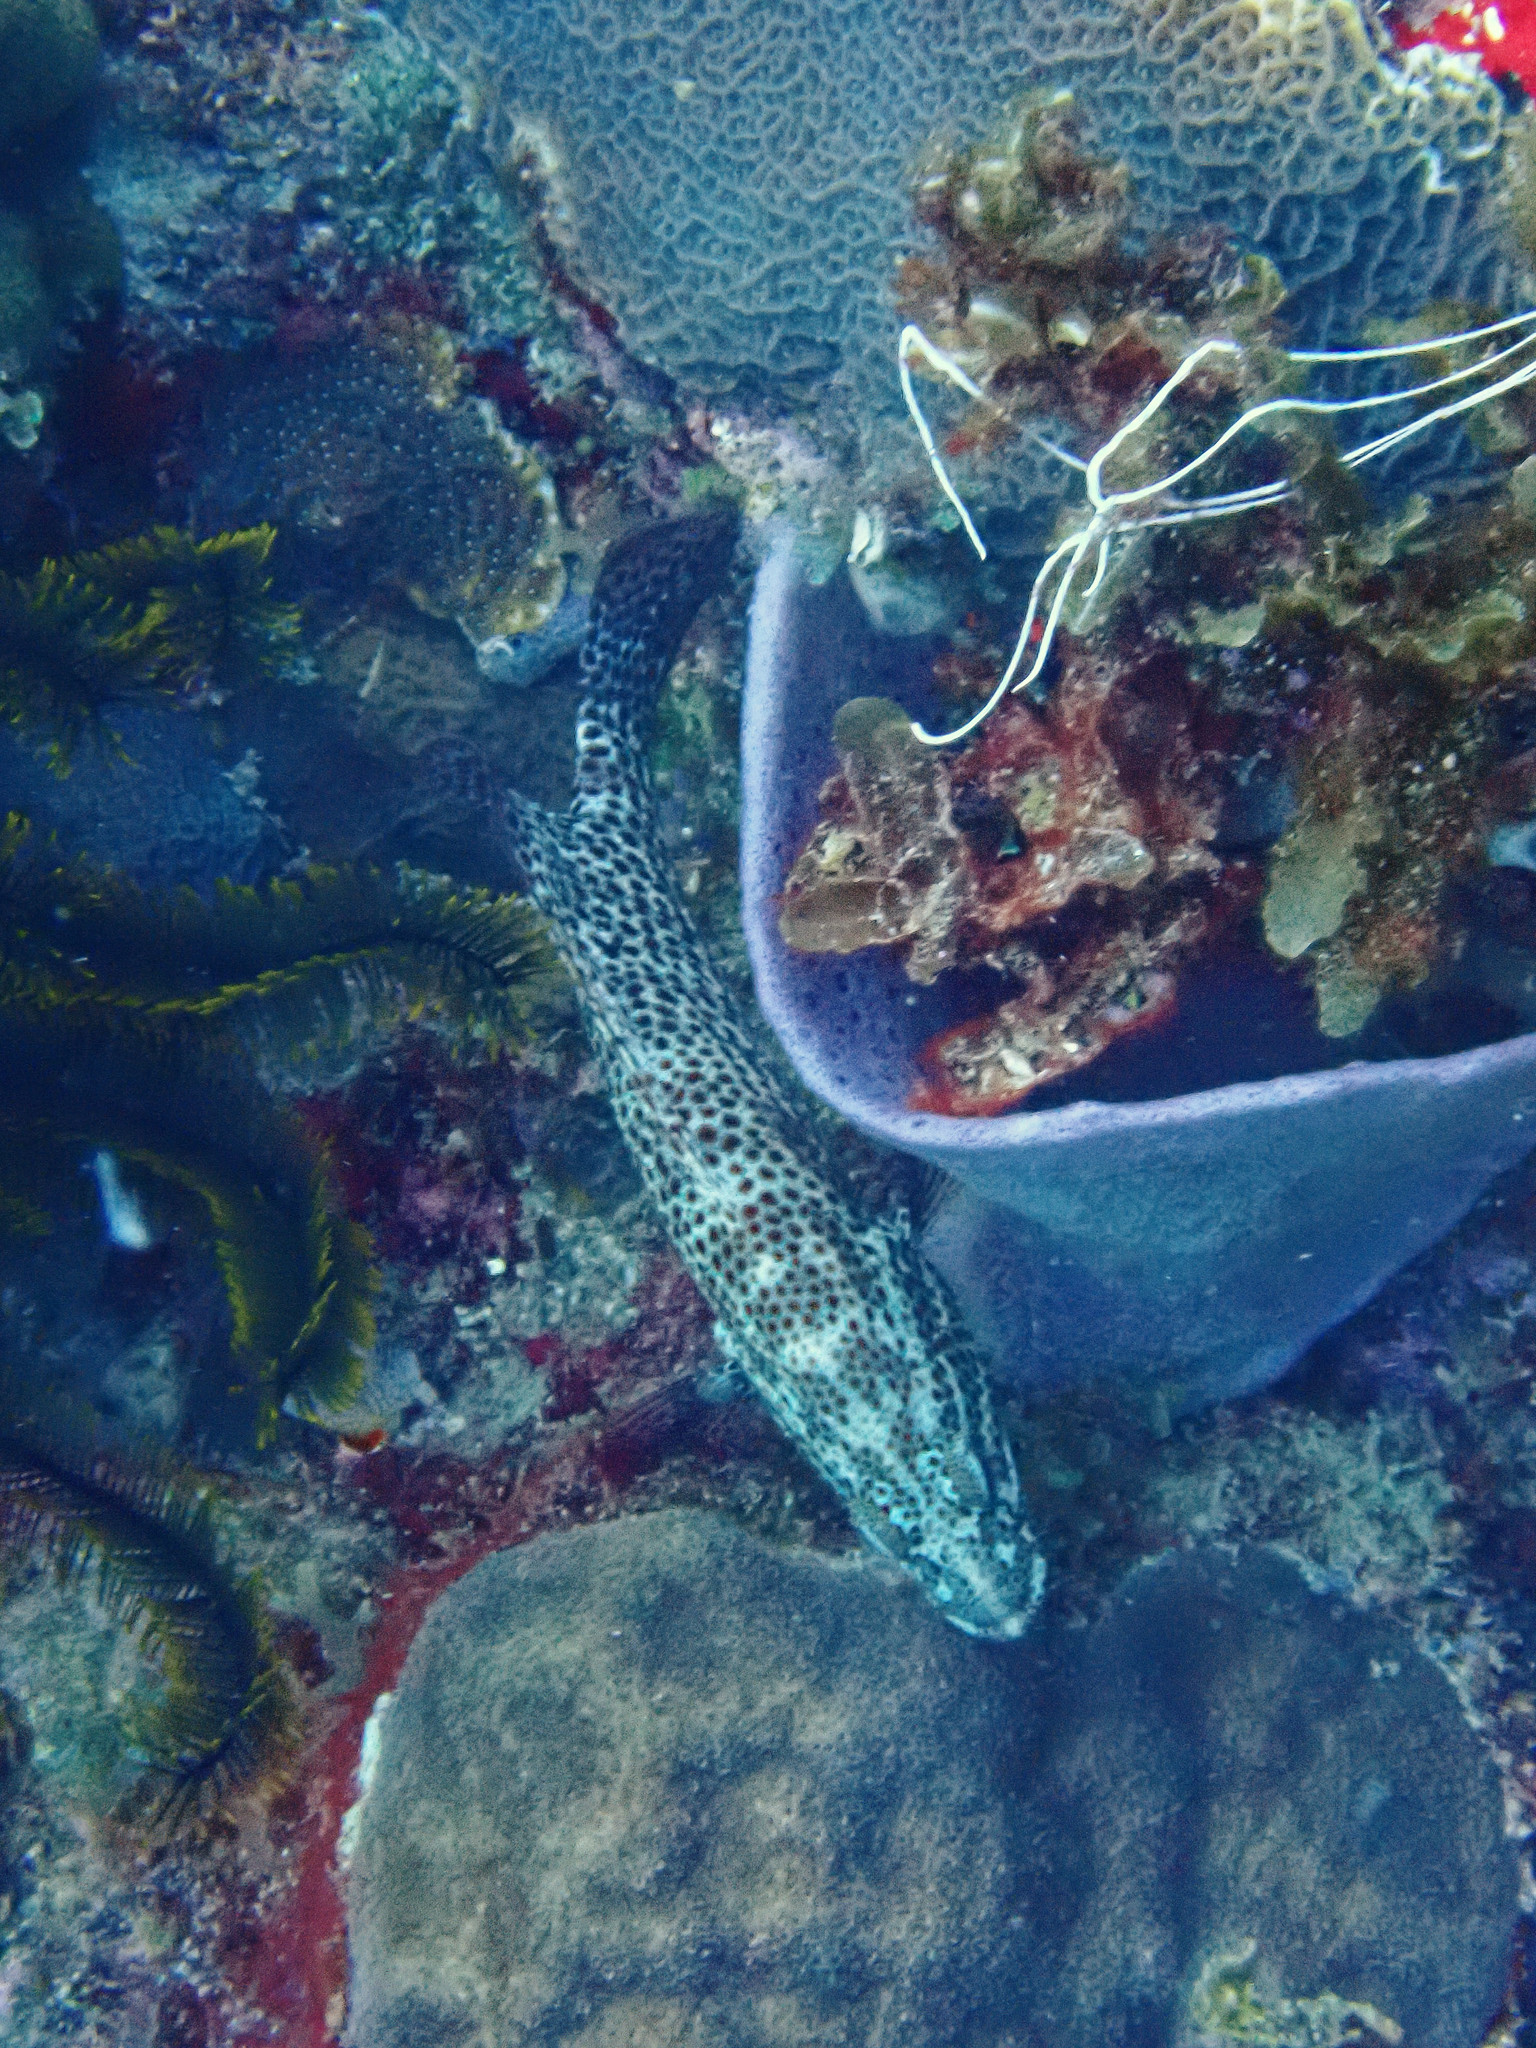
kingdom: Animalia
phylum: Chordata
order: Perciformes
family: Serranidae
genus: Cephalopholis
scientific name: Cephalopholis cruentata
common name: Graysby
